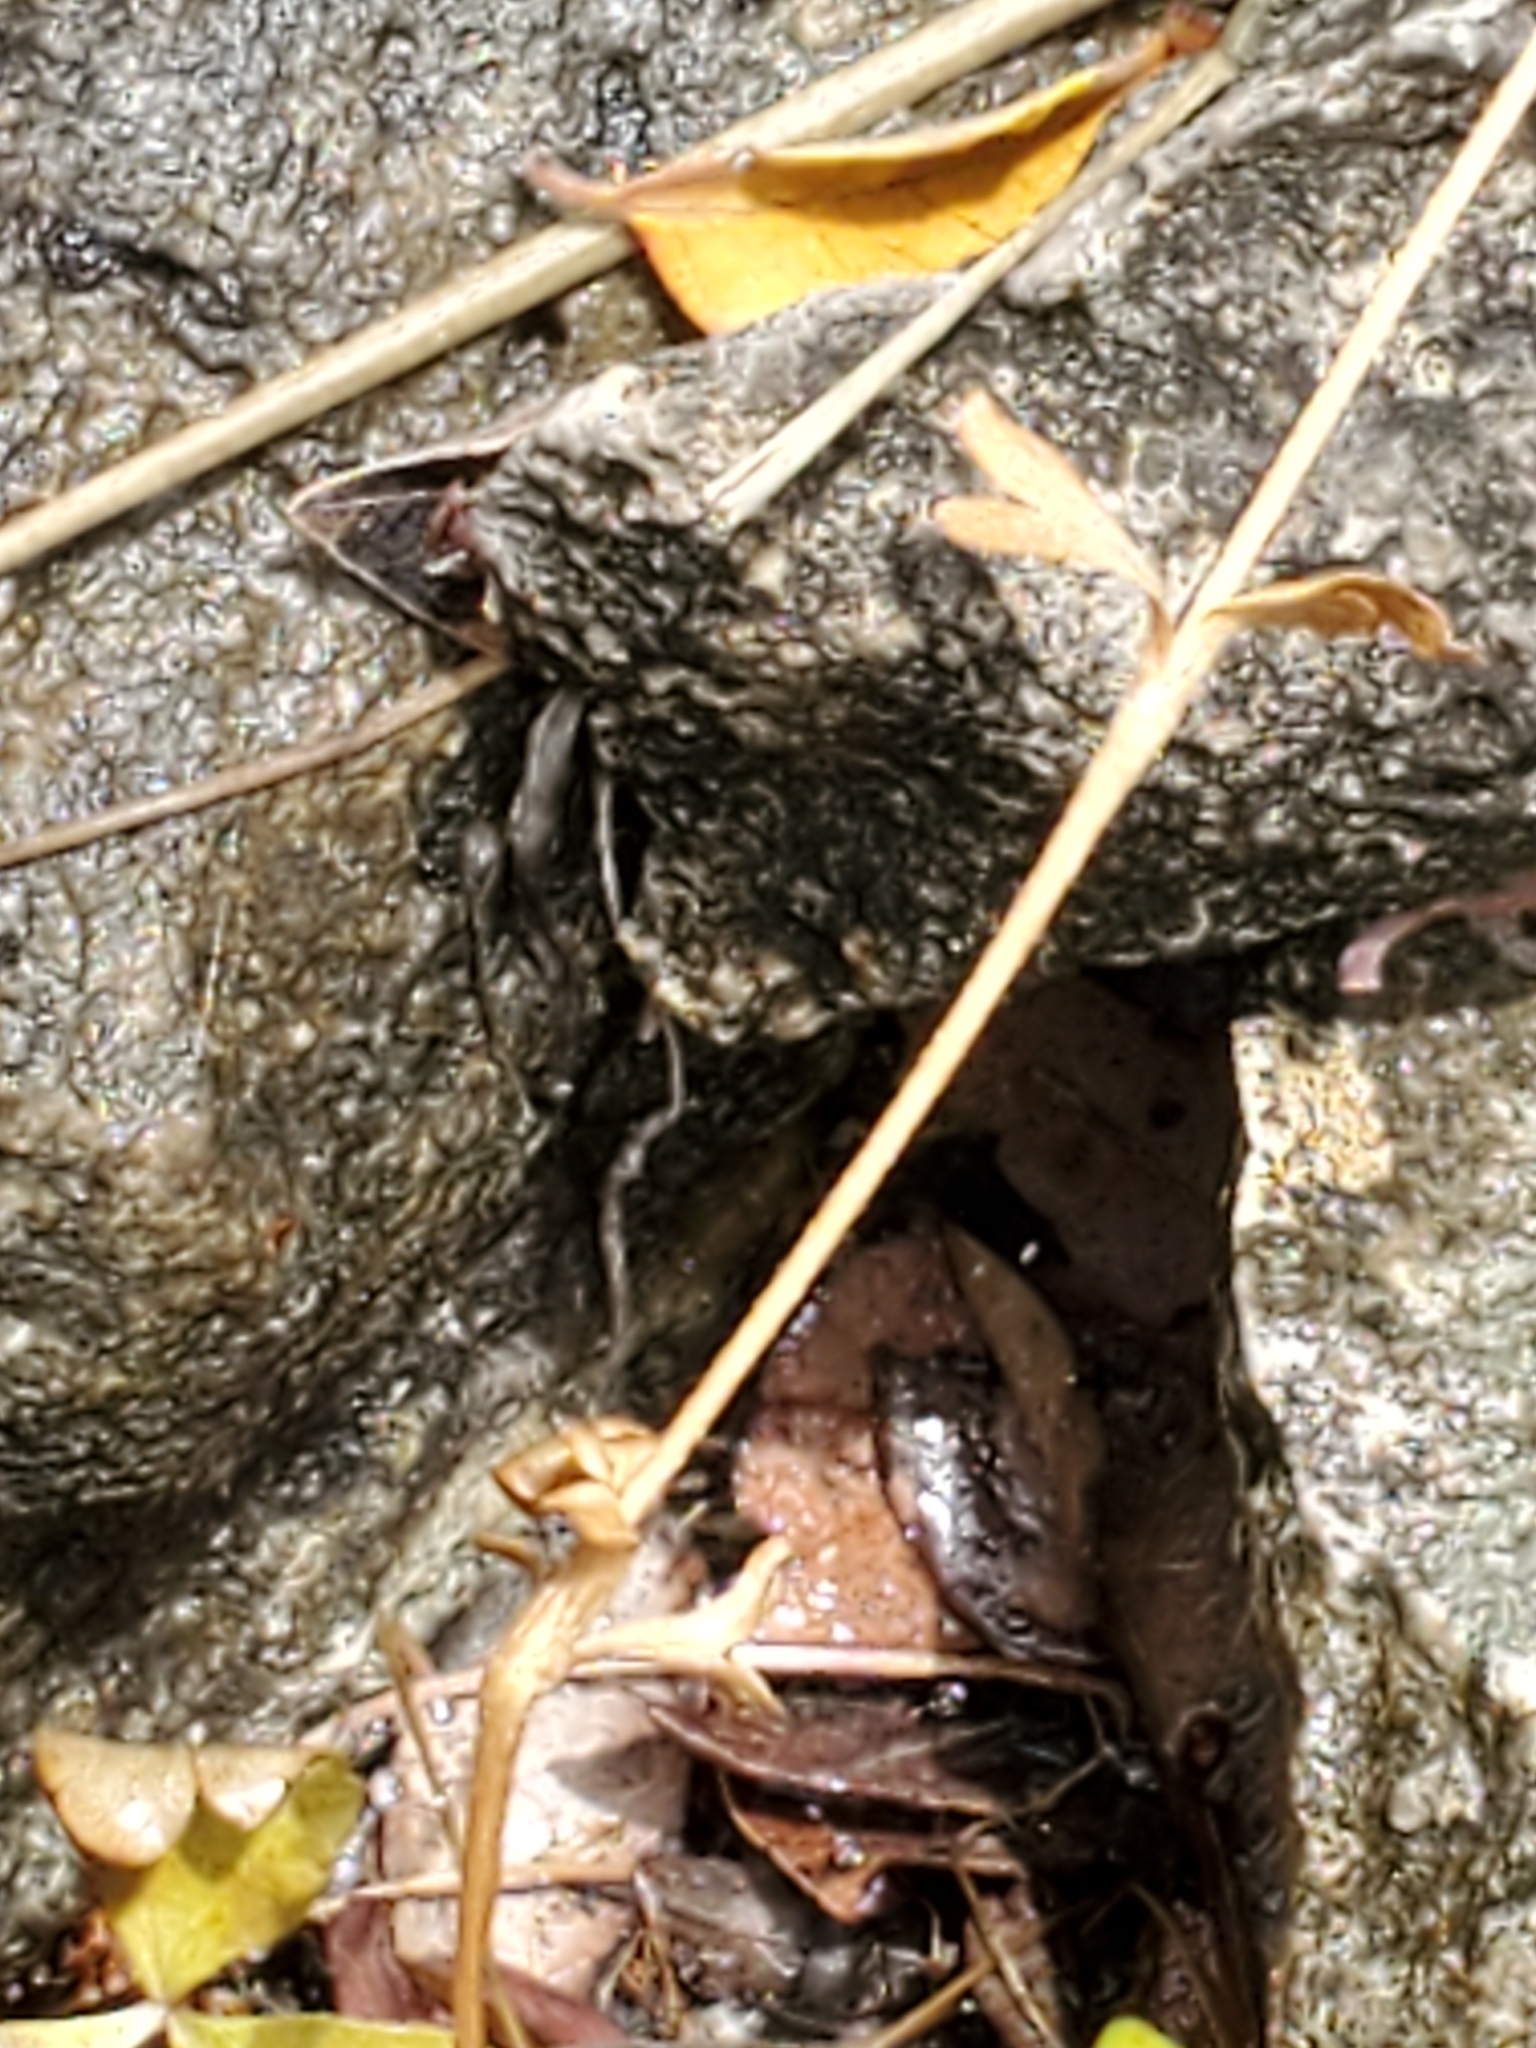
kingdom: Plantae
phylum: Tracheophyta
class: Magnoliopsida
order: Ranunculales
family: Ranunculaceae
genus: Anemone
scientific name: Anemone edwardsiana
